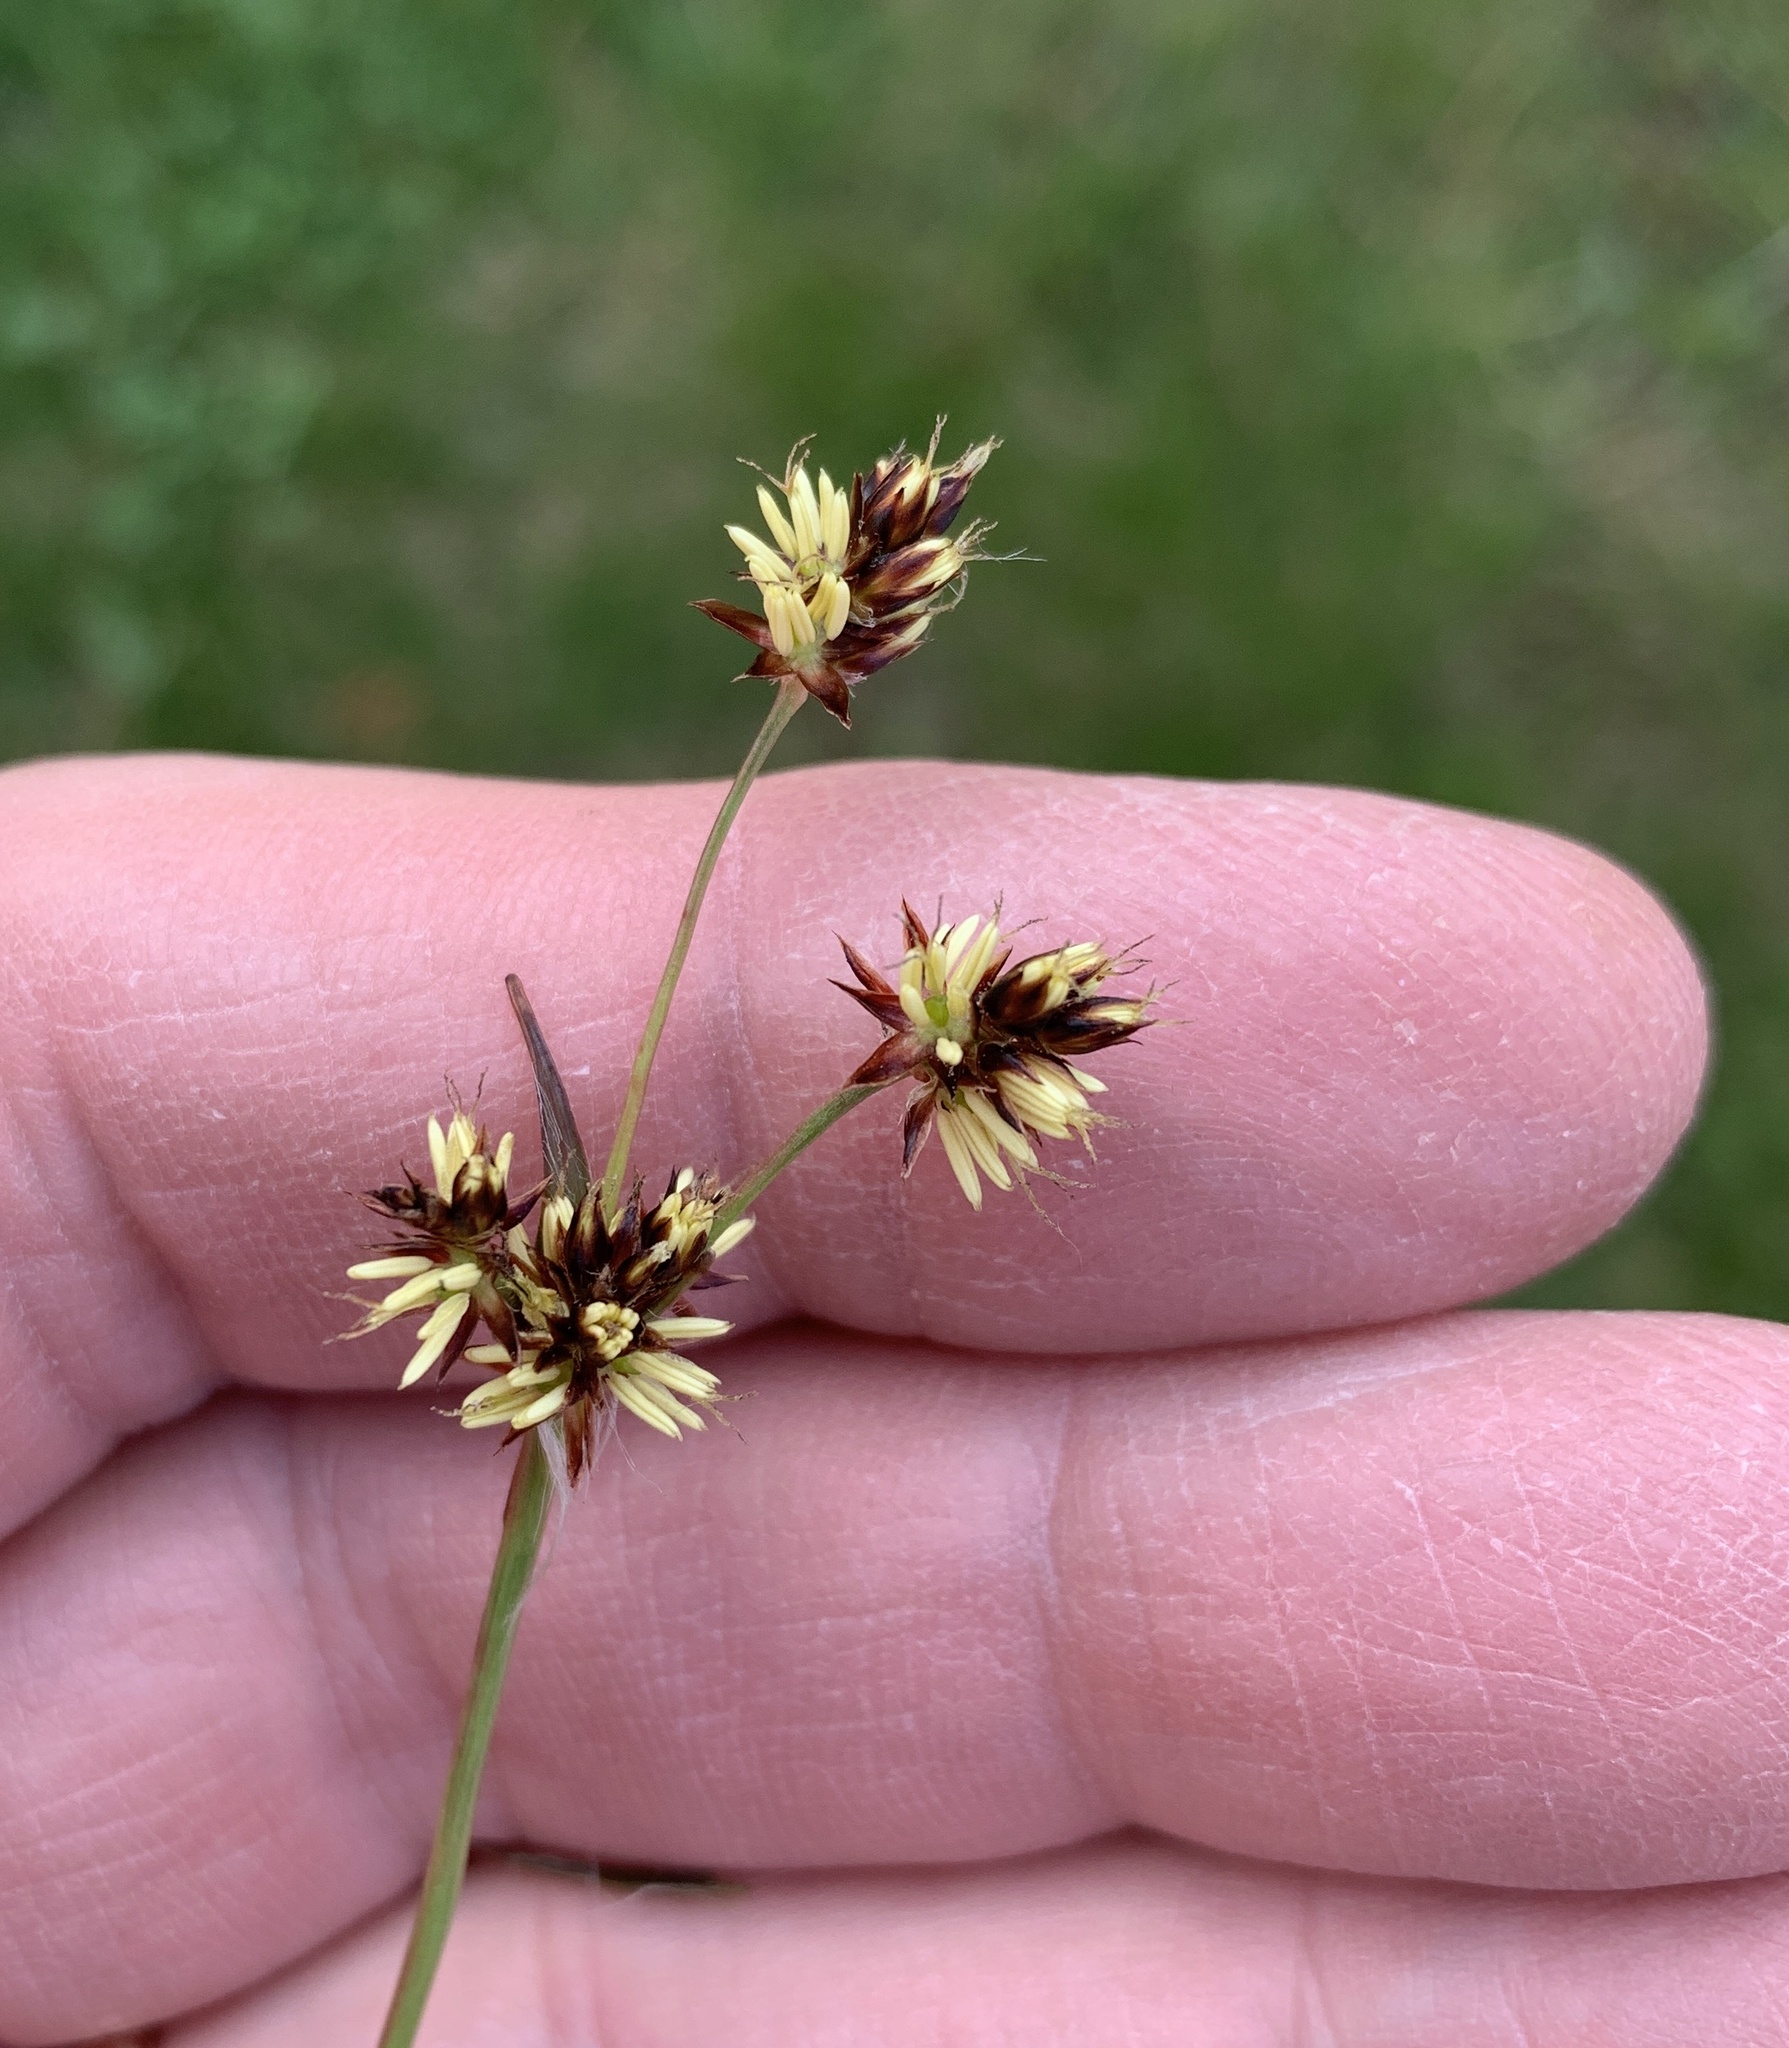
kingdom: Plantae
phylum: Tracheophyta
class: Liliopsida
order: Poales
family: Juncaceae
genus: Luzula
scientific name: Luzula campestris
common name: Field wood-rush
